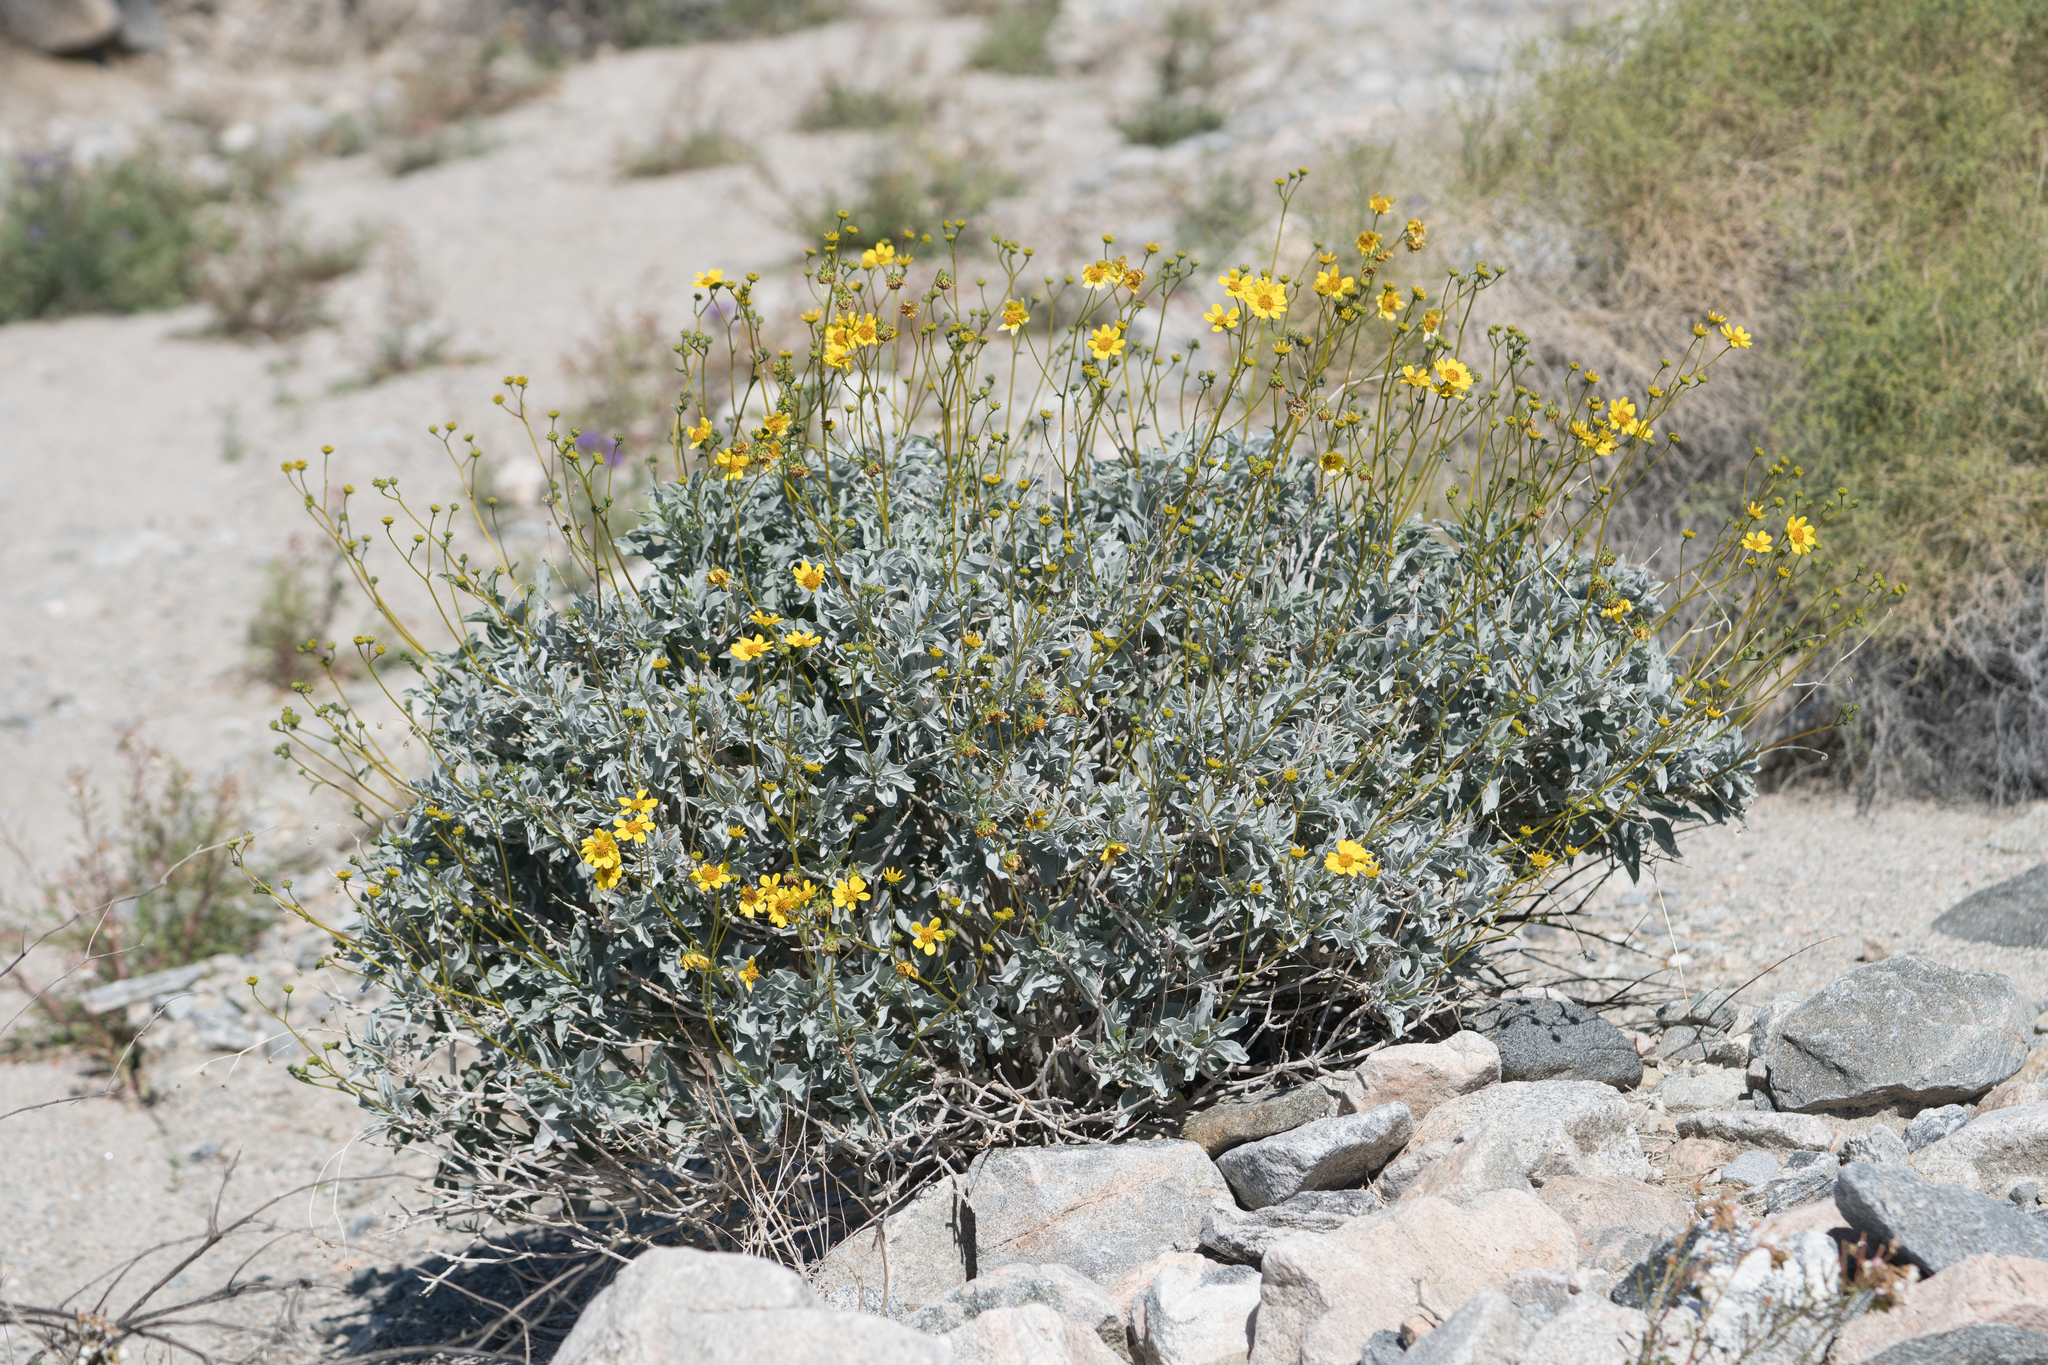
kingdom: Plantae
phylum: Tracheophyta
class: Magnoliopsida
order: Asterales
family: Asteraceae
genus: Encelia
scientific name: Encelia farinosa
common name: Brittlebush
